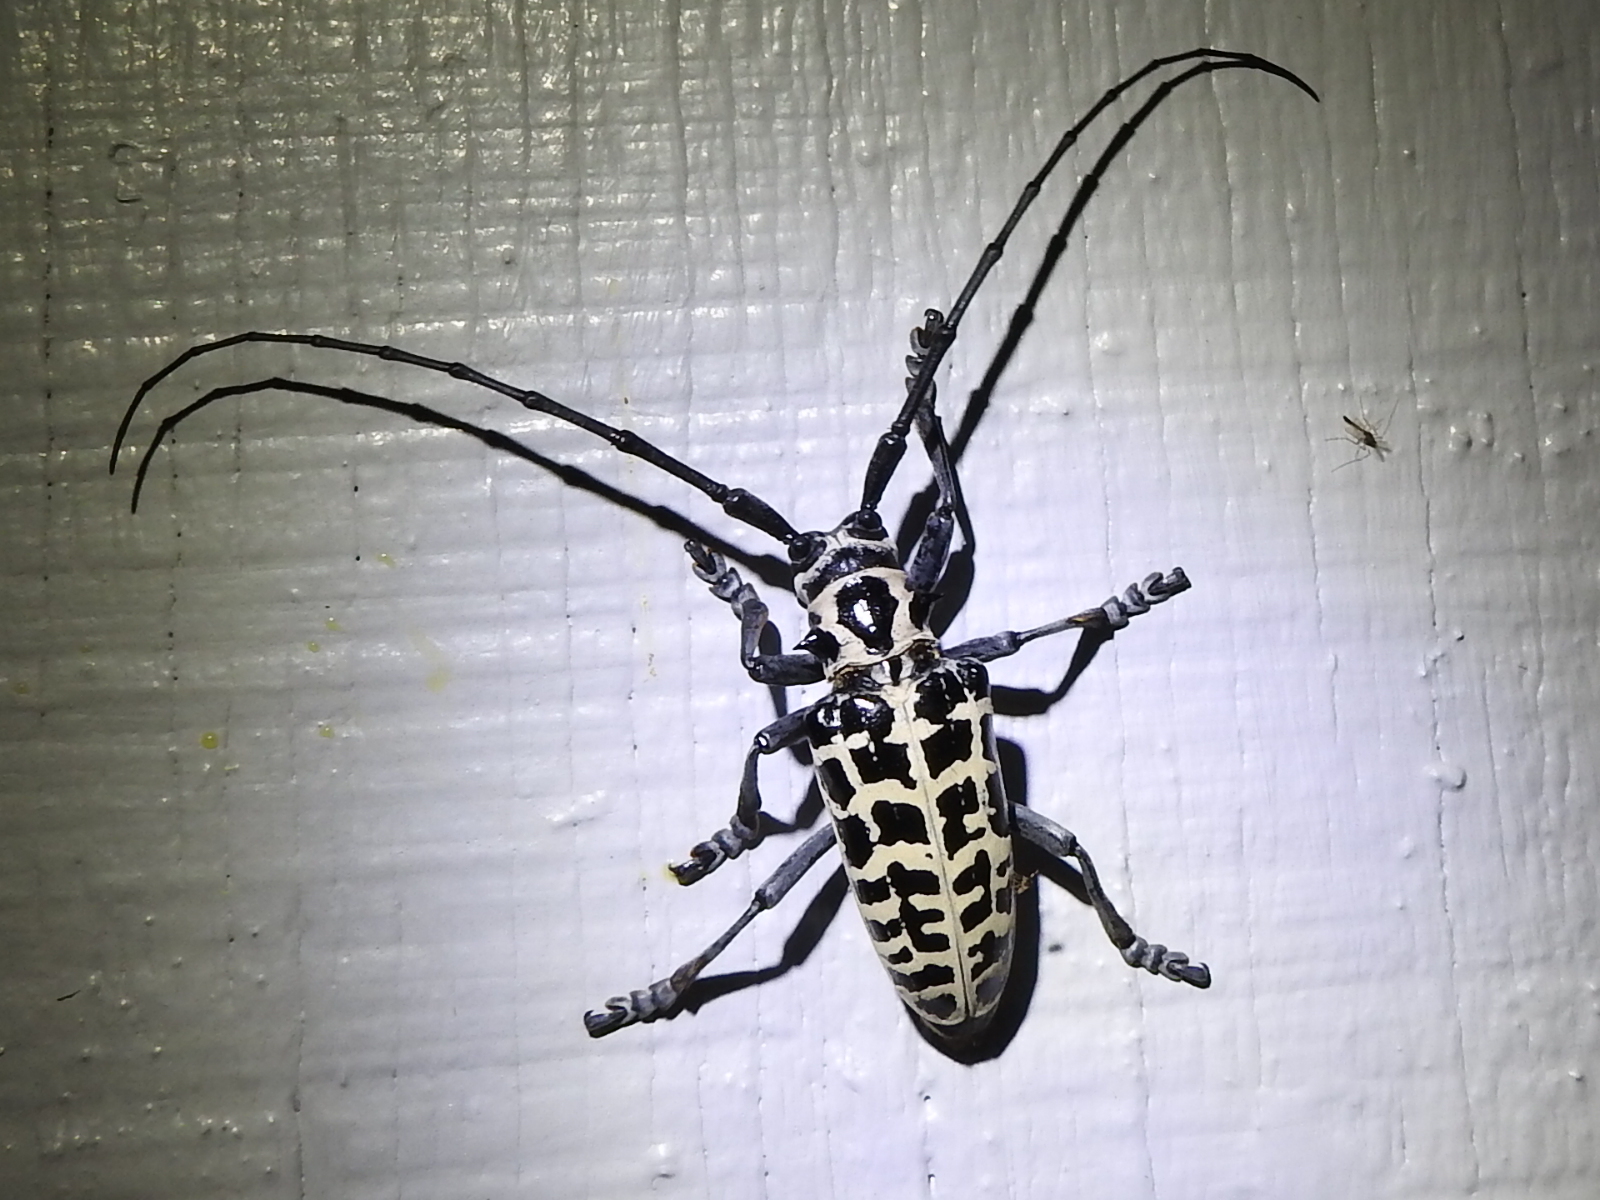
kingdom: Animalia
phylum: Arthropoda
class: Insecta
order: Coleoptera
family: Cerambycidae
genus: Plectrodera
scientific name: Plectrodera scalator
